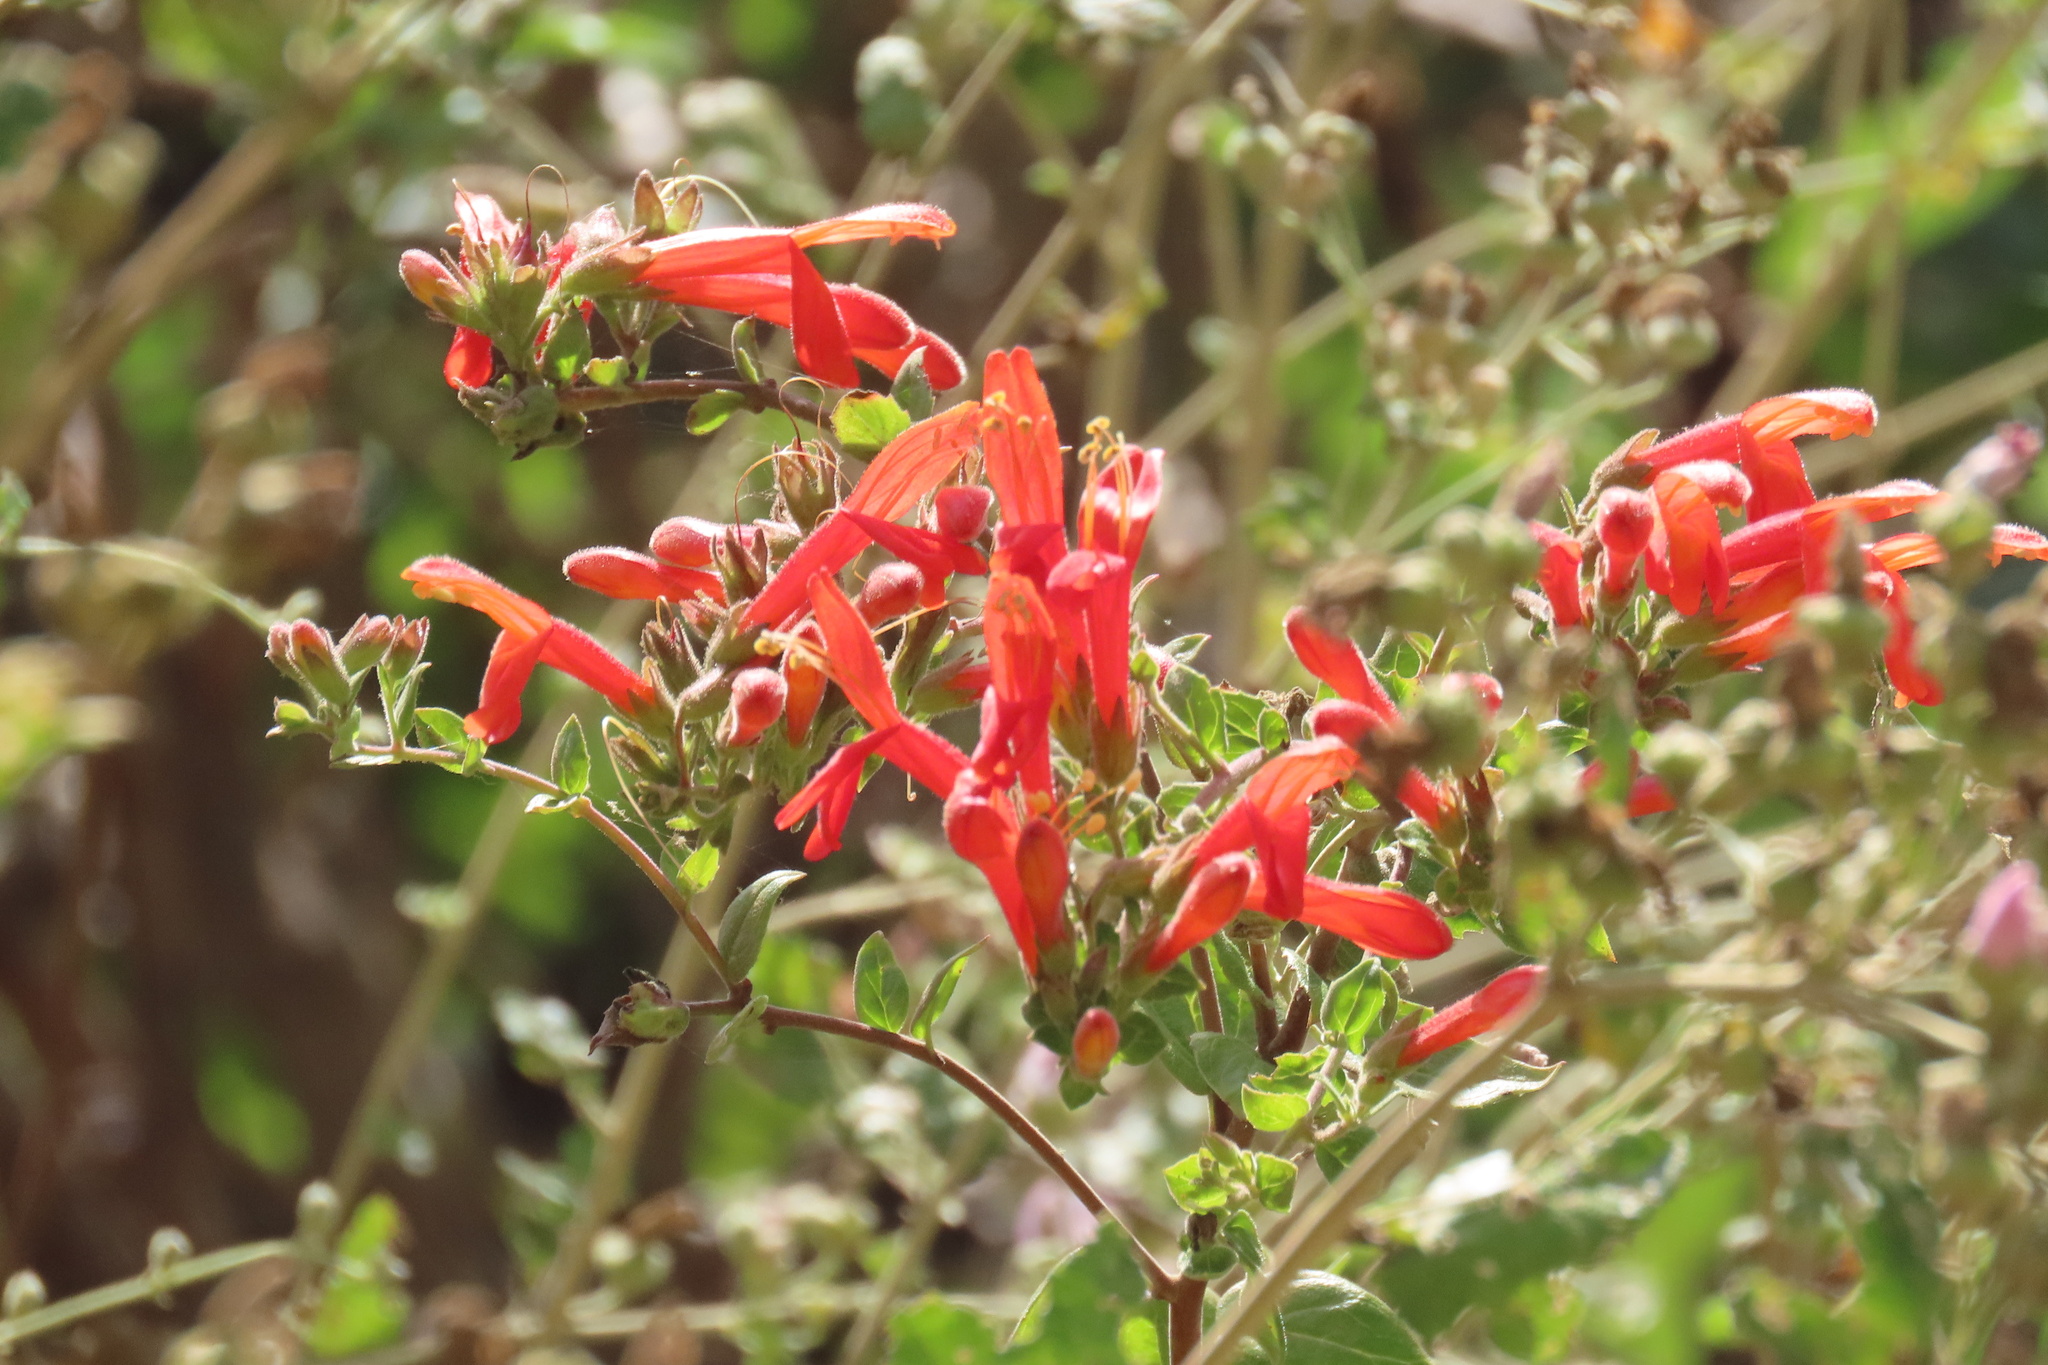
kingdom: Plantae
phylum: Tracheophyta
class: Magnoliopsida
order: Lamiales
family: Plantaginaceae
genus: Keckiella
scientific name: Keckiella cordifolia
